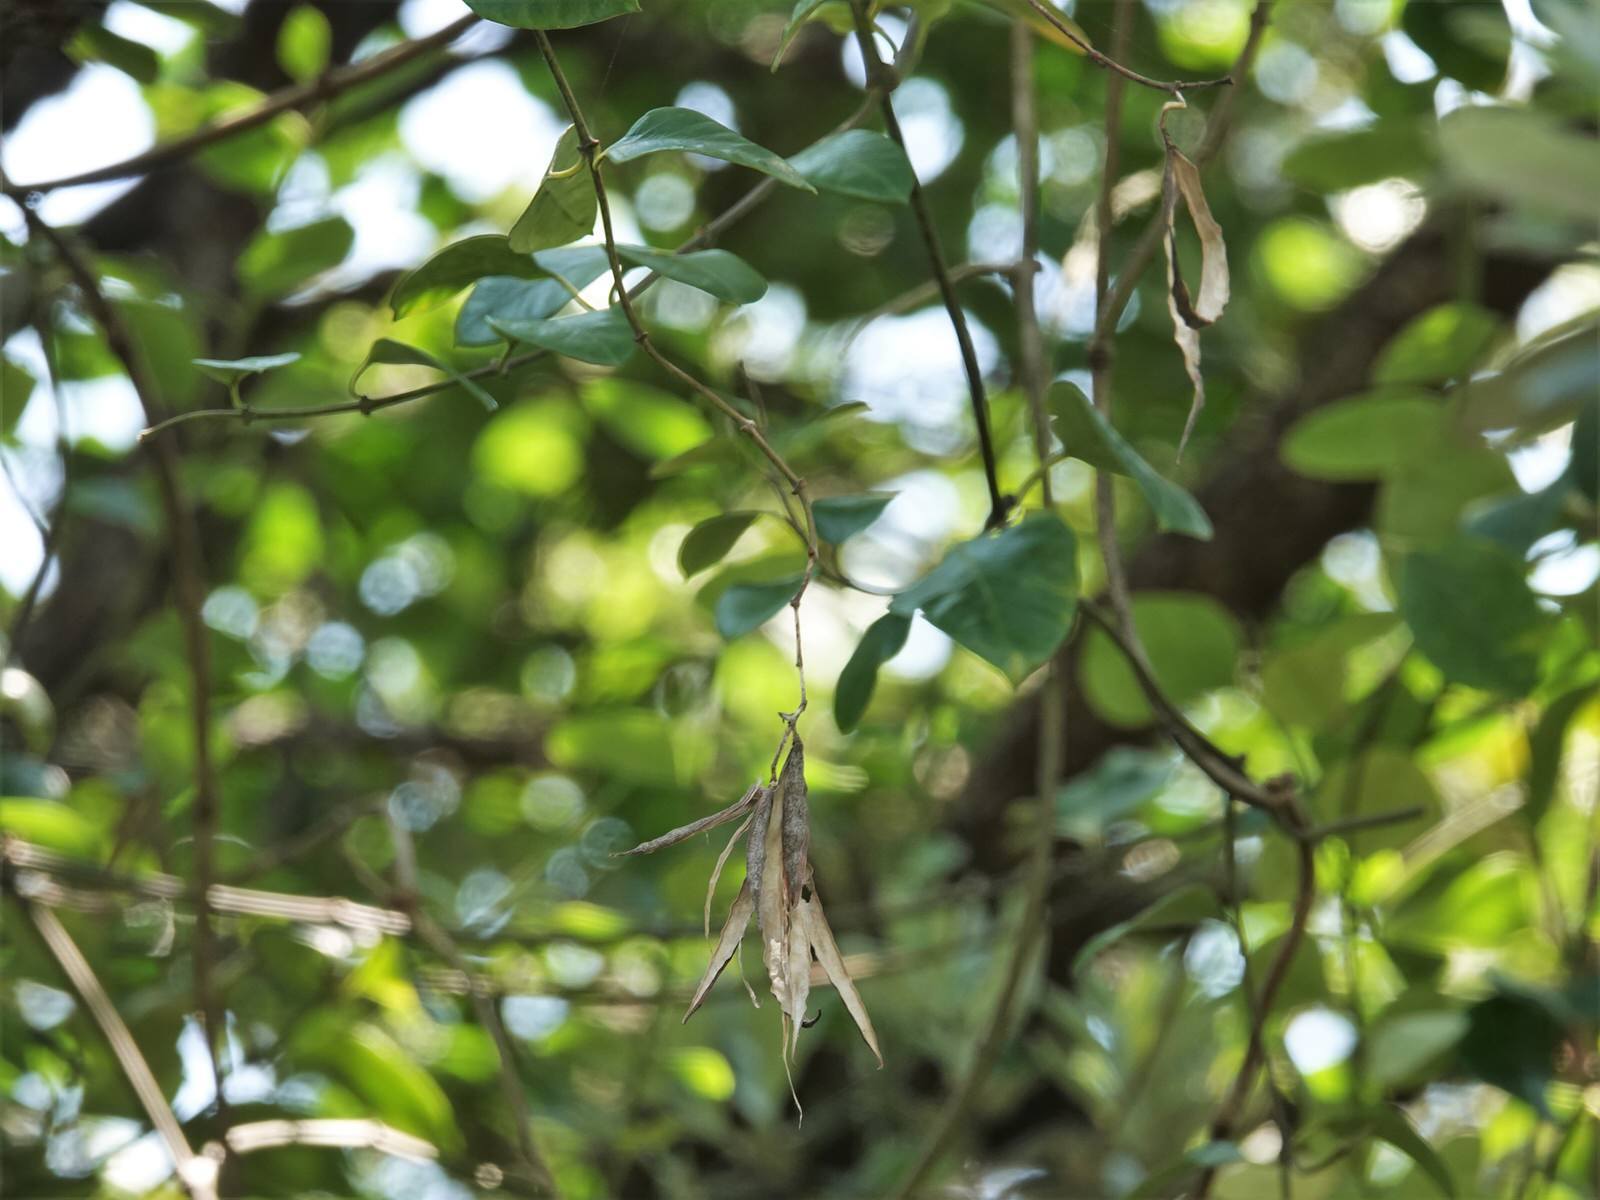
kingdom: Plantae
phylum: Tracheophyta
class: Magnoliopsida
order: Gentianales
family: Apocynaceae
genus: Parsonsia
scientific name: Parsonsia heterophylla
